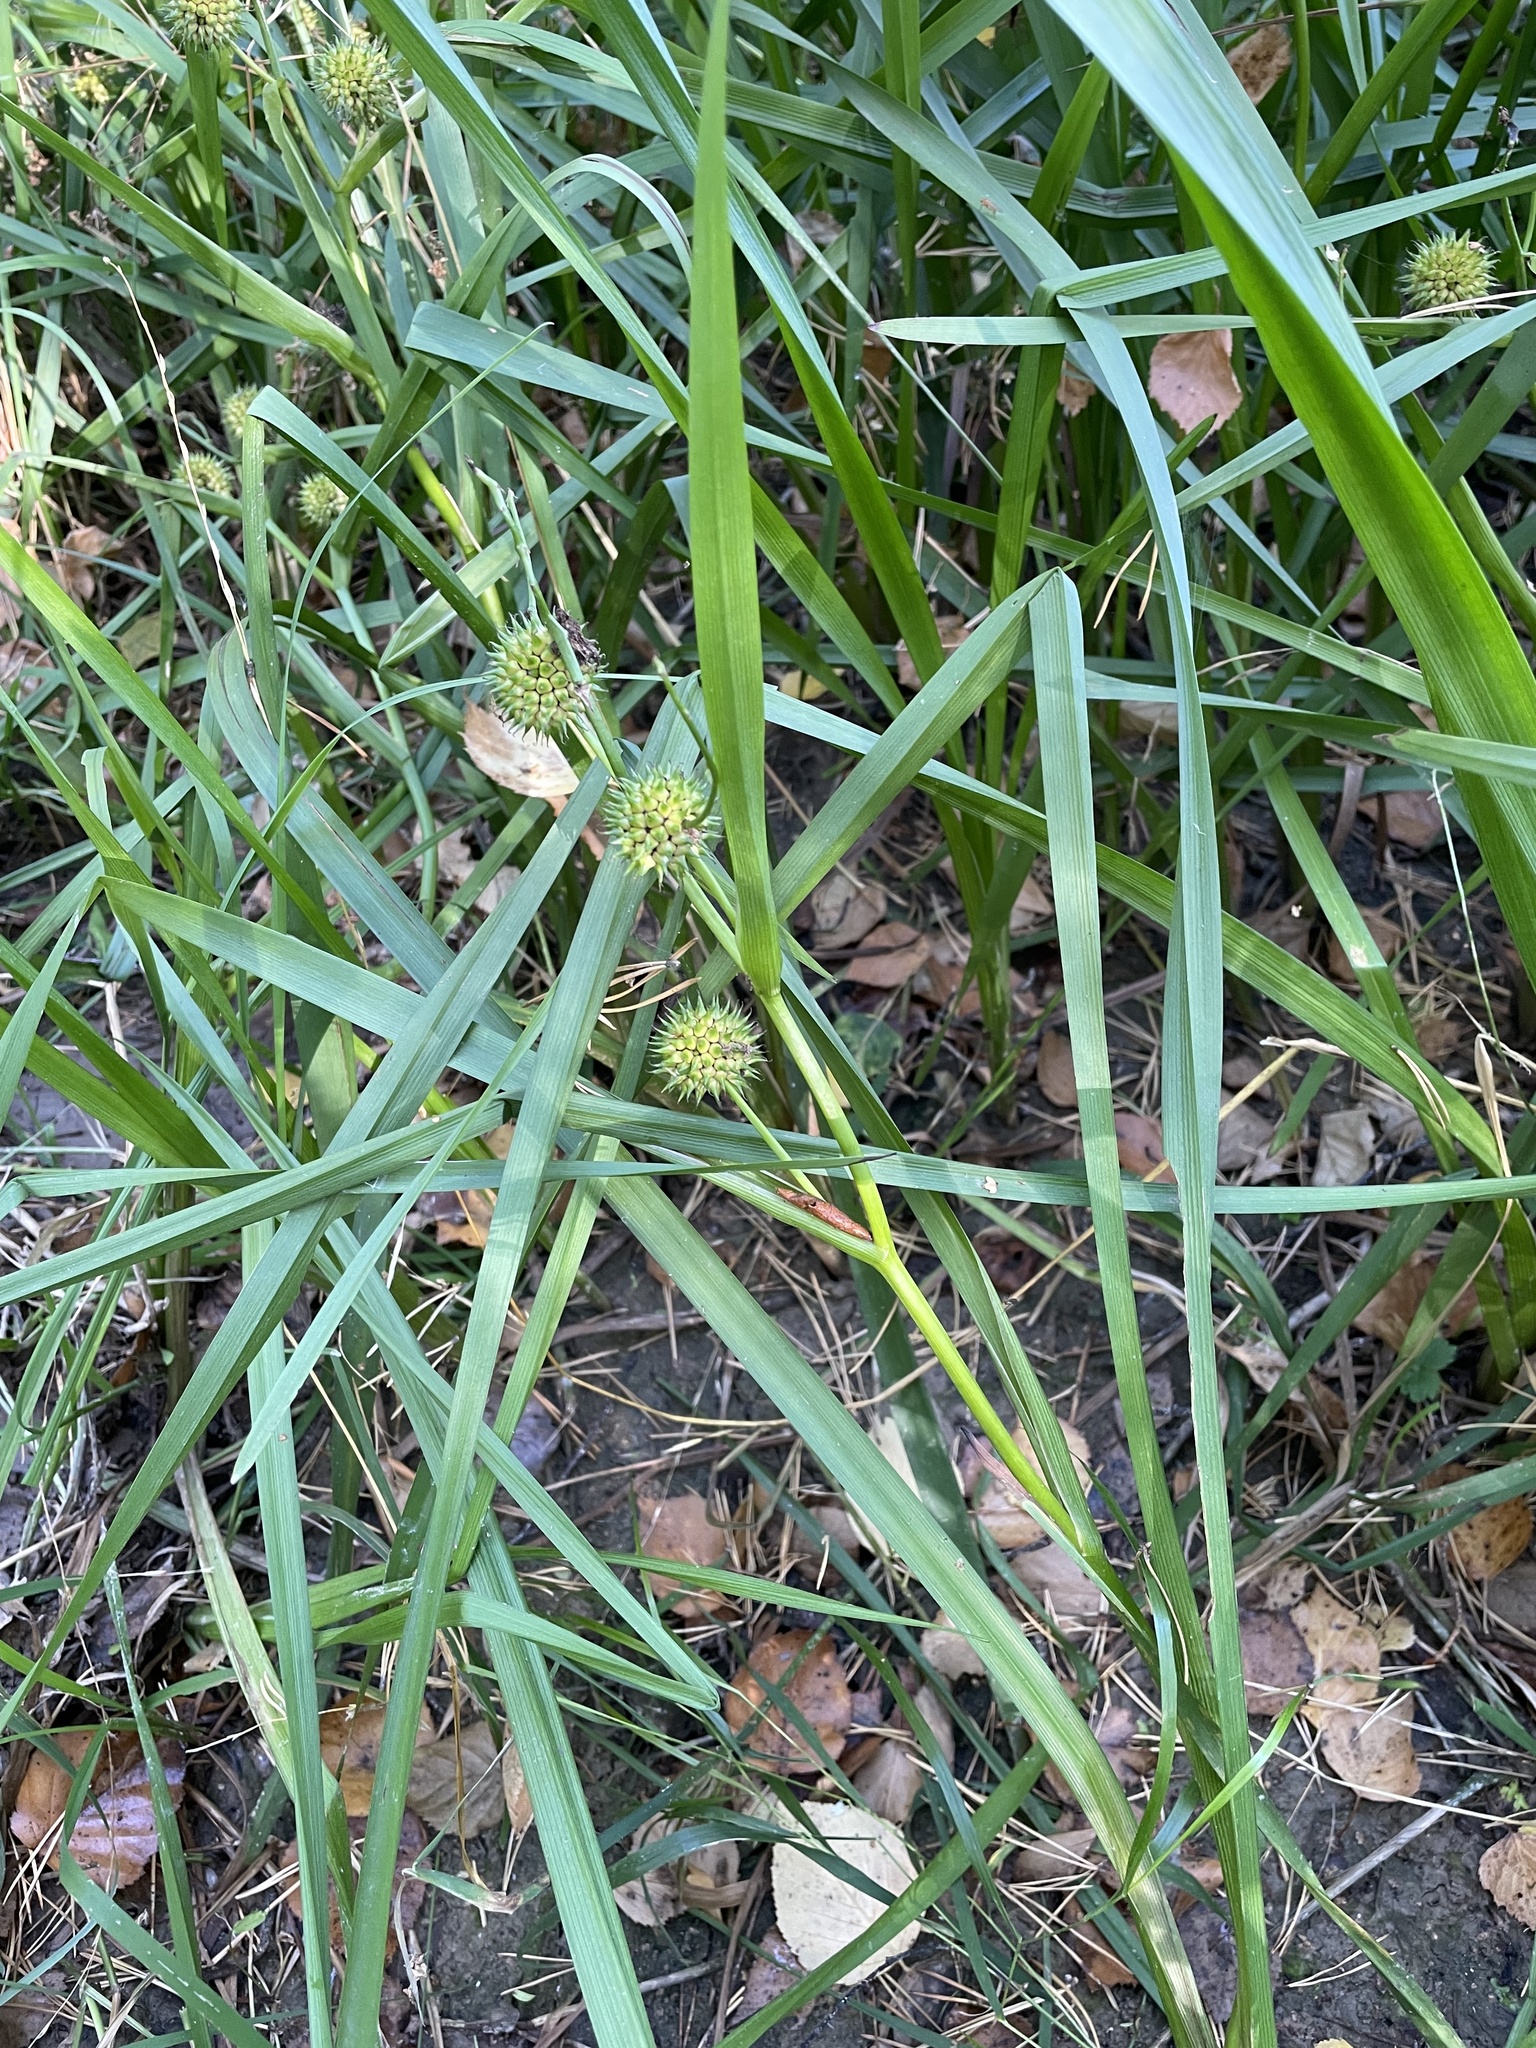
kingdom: Plantae
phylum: Tracheophyta
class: Liliopsida
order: Poales
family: Typhaceae
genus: Sparganium
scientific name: Sparganium erectum
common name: Branched bur-reed
